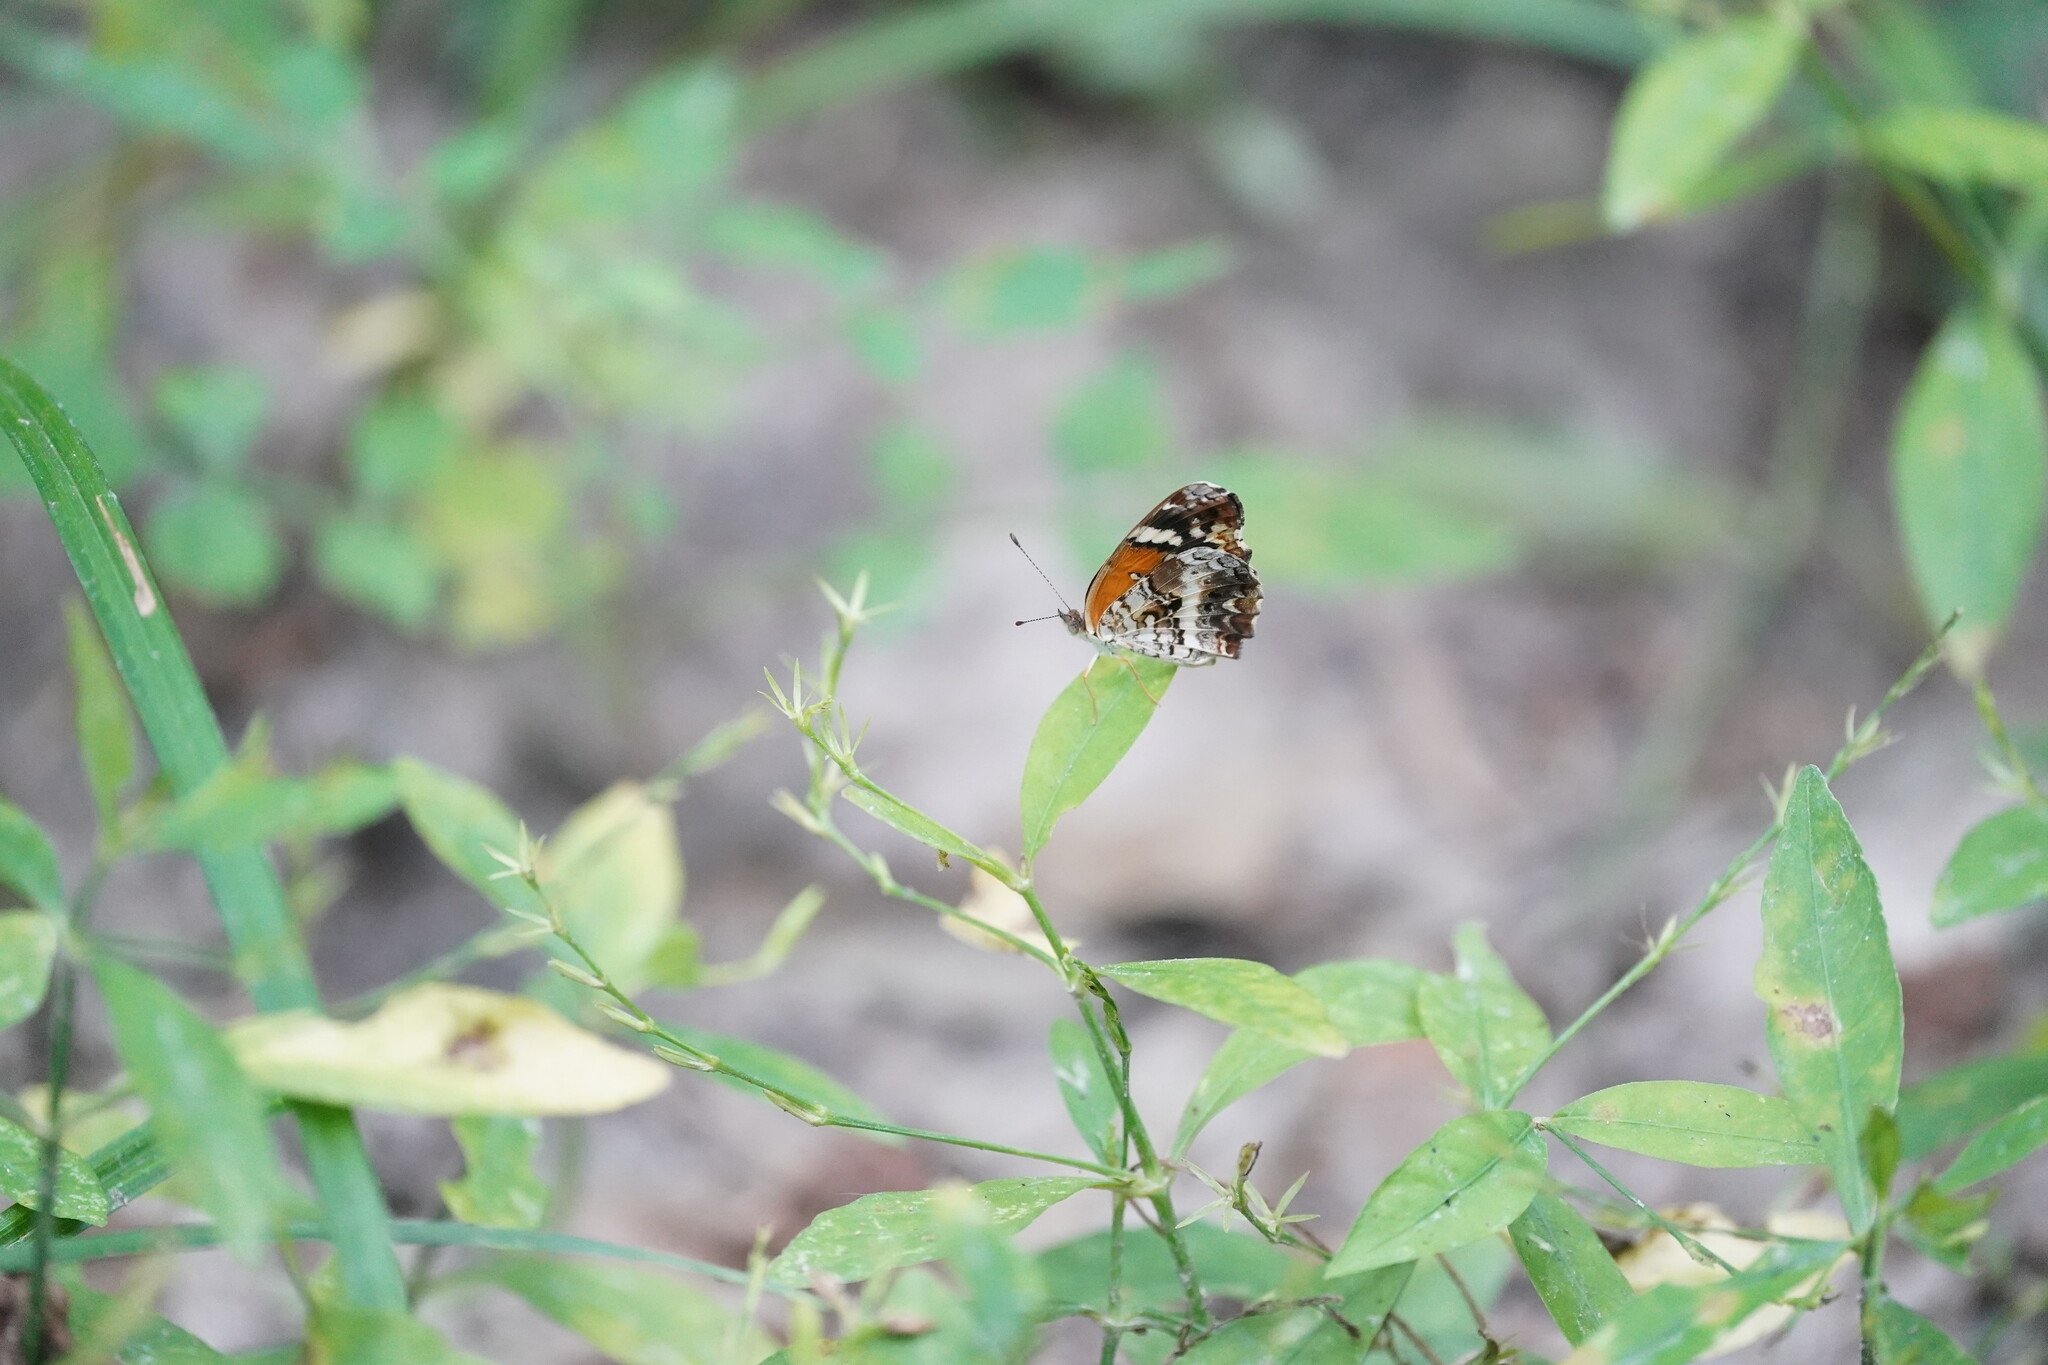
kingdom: Animalia
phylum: Arthropoda
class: Insecta
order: Lepidoptera
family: Nymphalidae
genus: Anthanassa
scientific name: Anthanassa taxana
